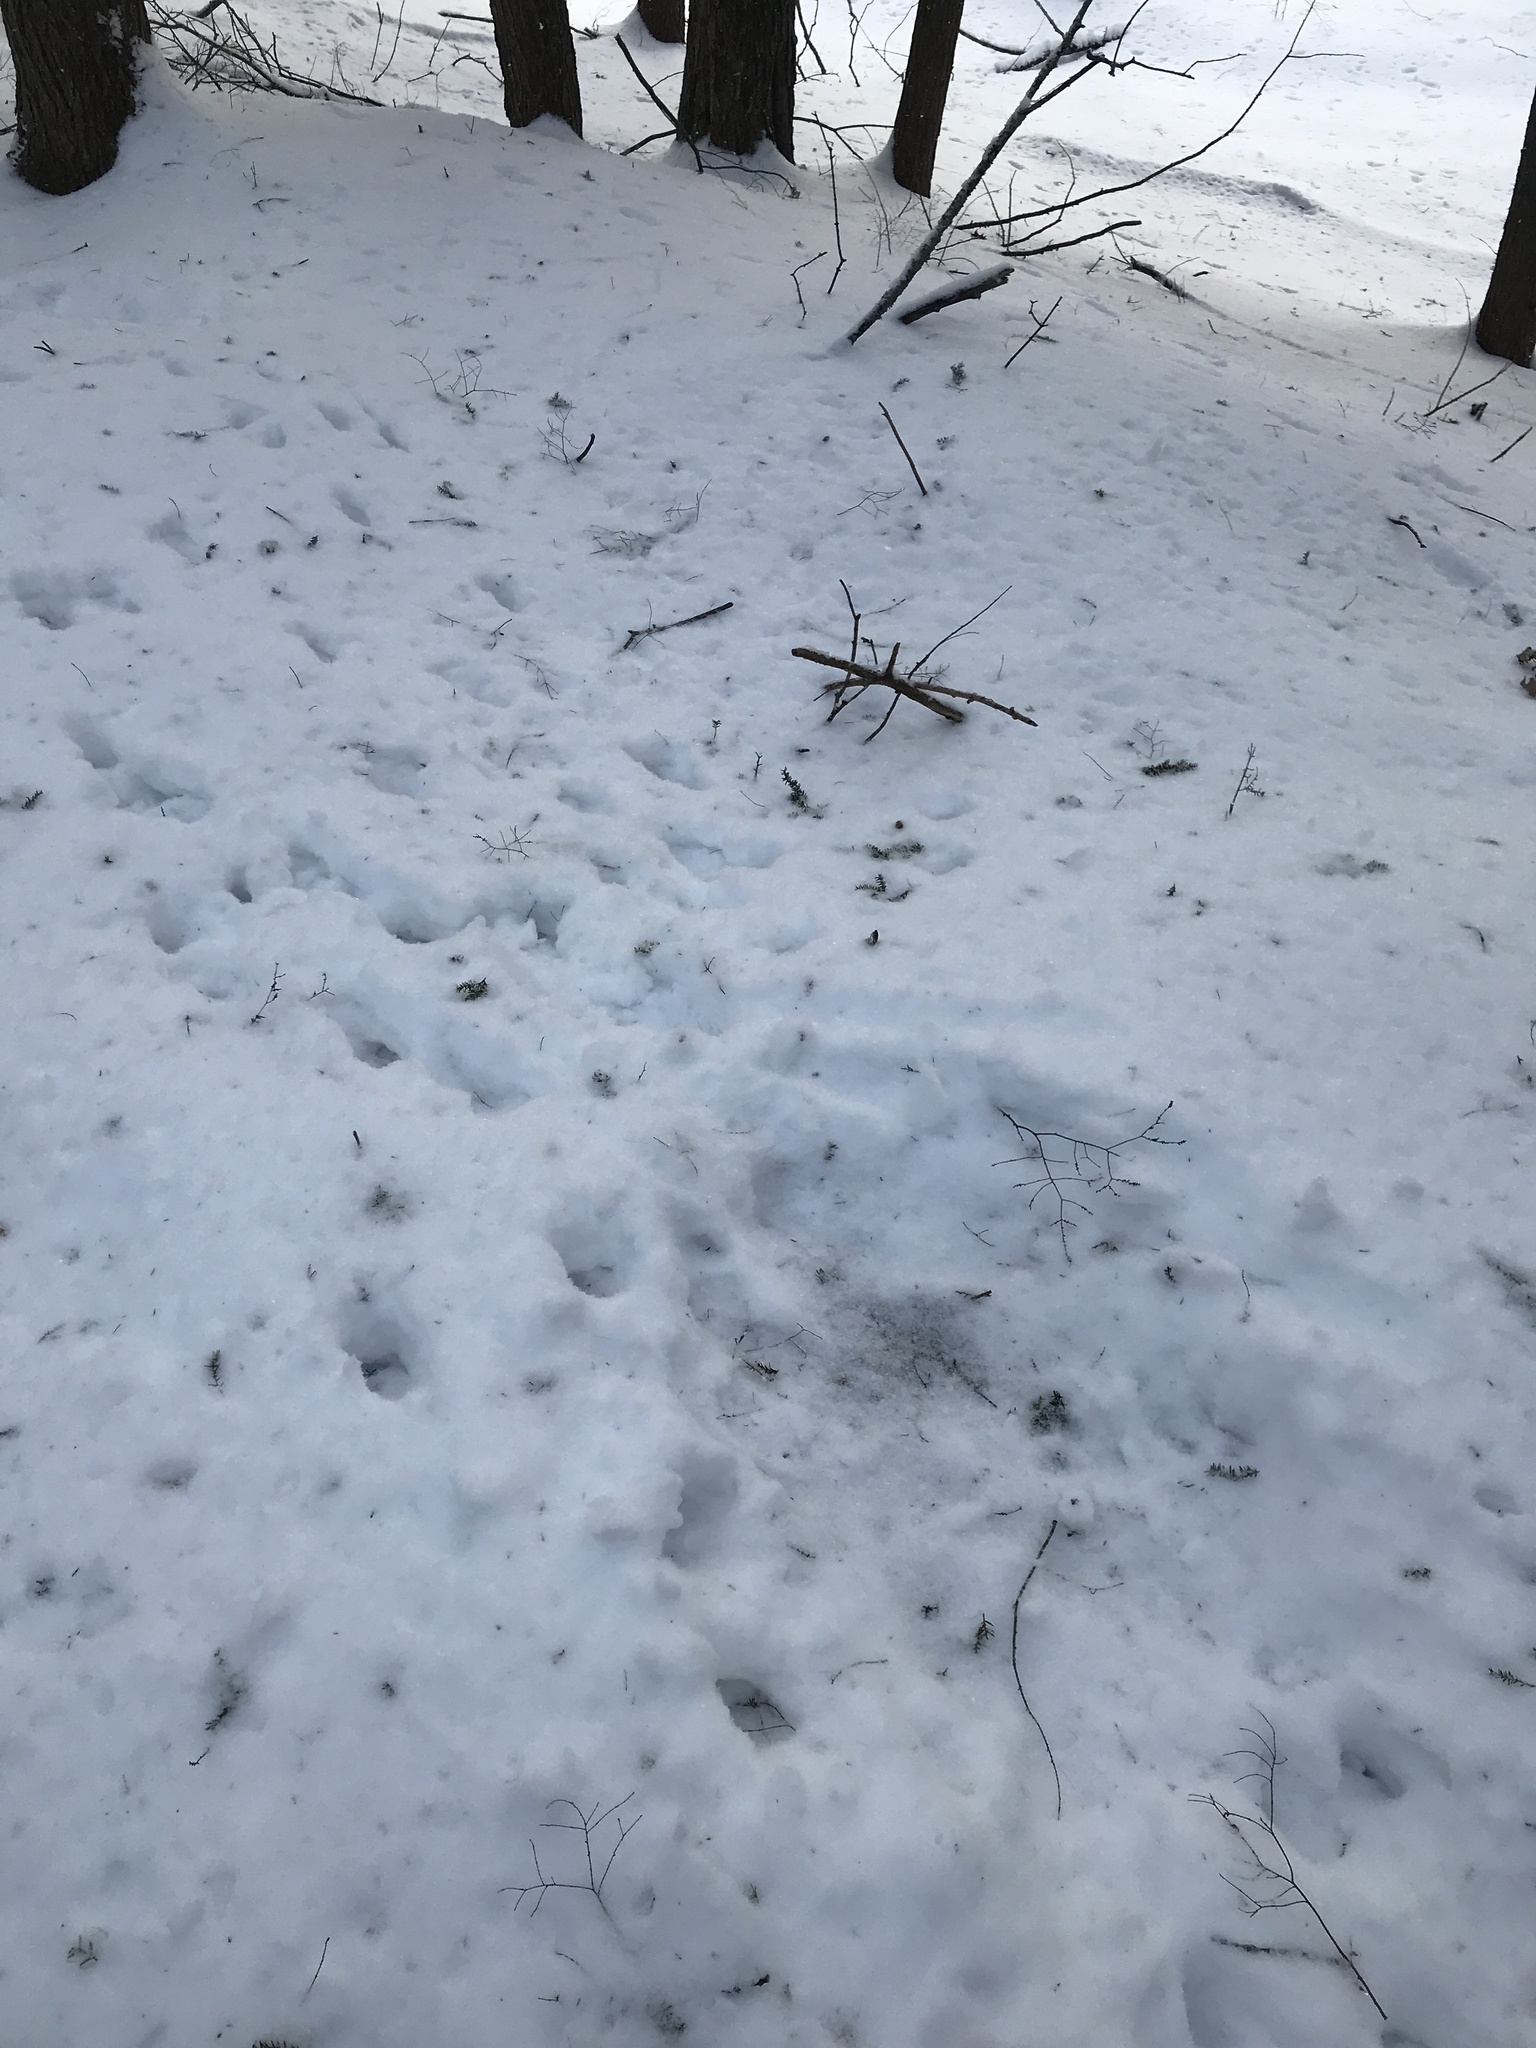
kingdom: Animalia
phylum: Chordata
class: Mammalia
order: Artiodactyla
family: Cervidae
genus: Odocoileus
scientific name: Odocoileus virginianus
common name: White-tailed deer
